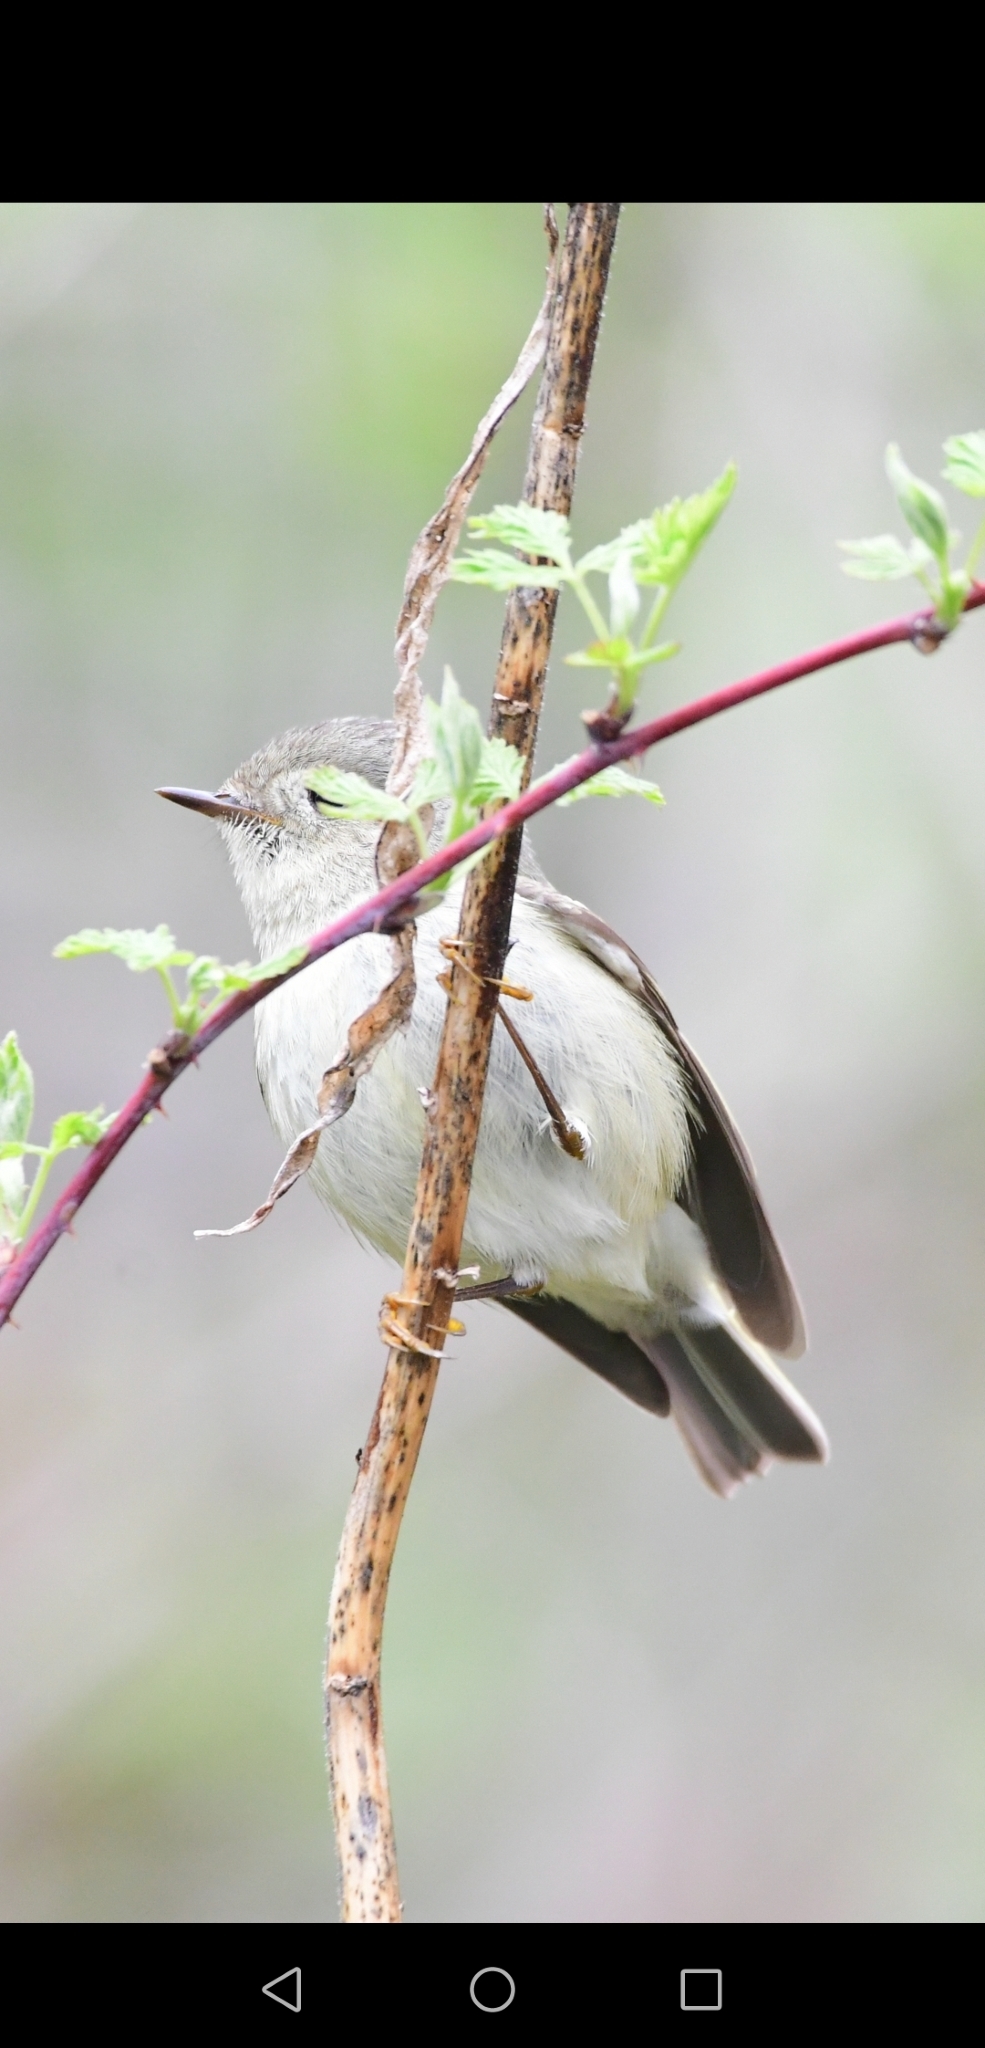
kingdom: Animalia
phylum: Chordata
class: Aves
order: Passeriformes
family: Regulidae
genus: Regulus
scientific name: Regulus calendula
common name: Ruby-crowned kinglet
